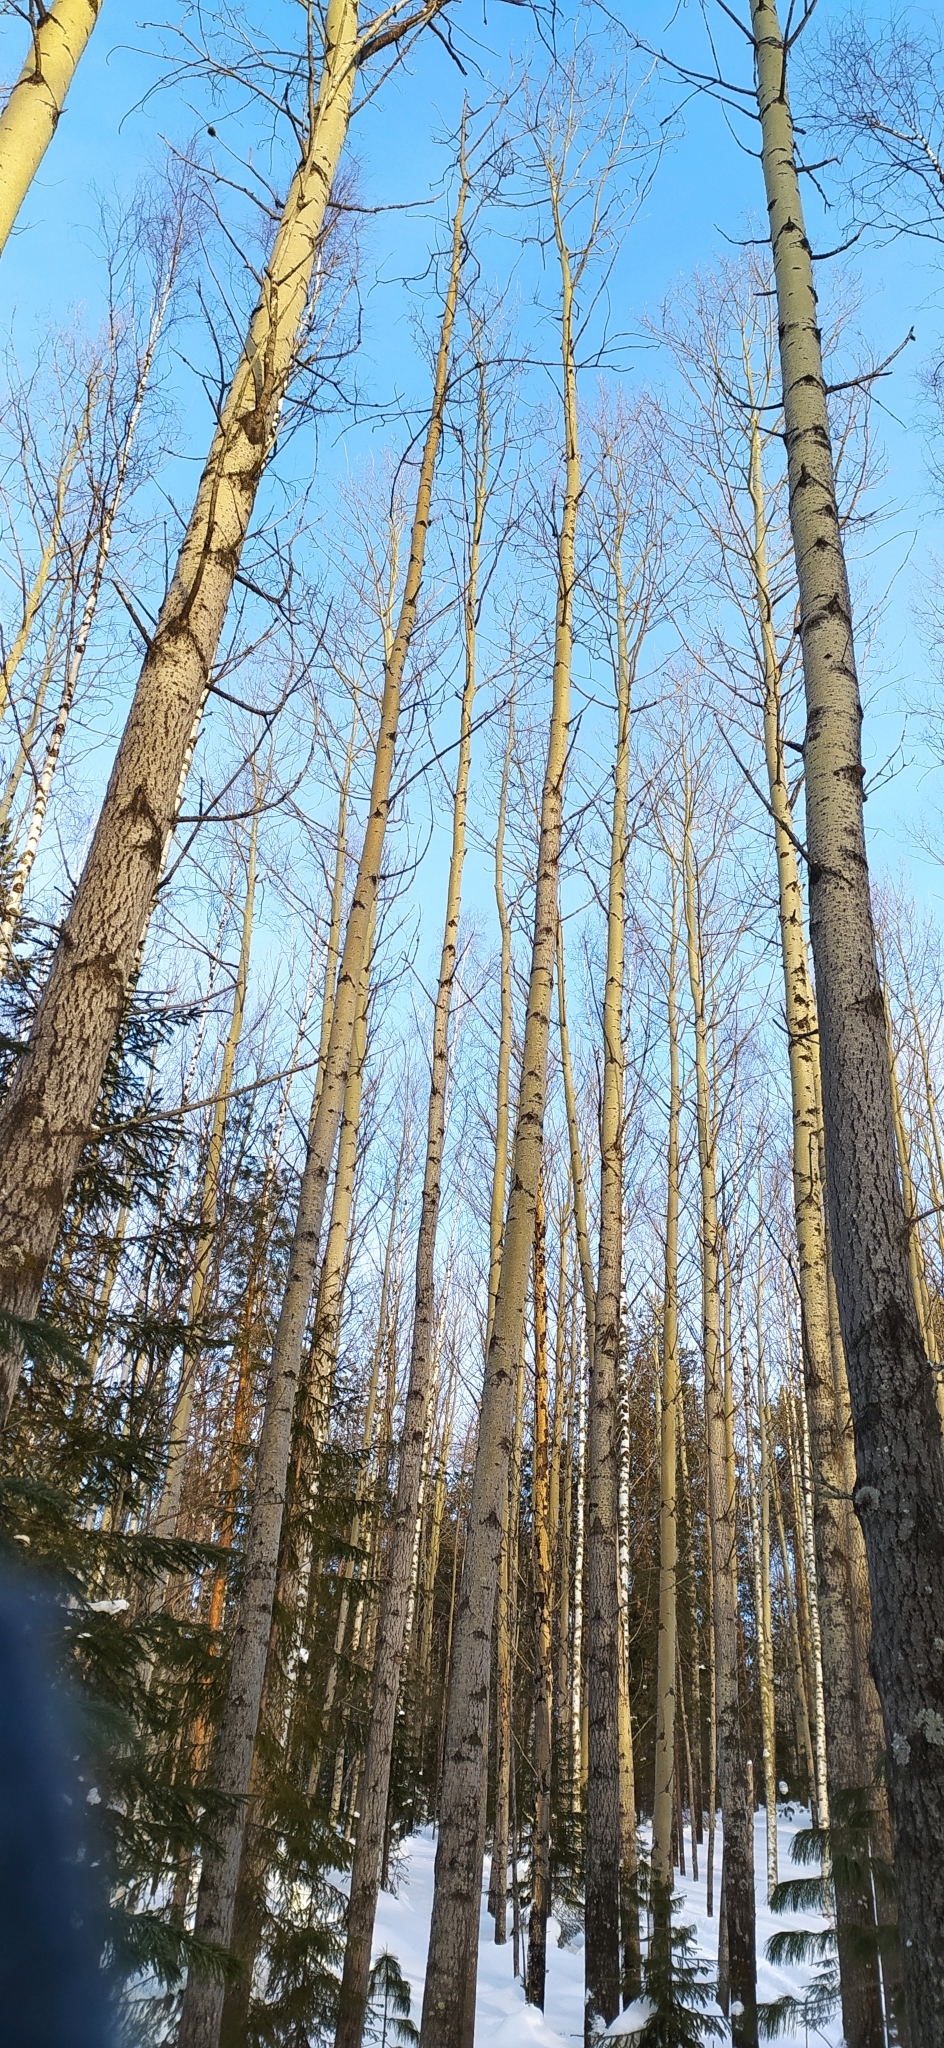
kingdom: Plantae
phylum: Tracheophyta
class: Magnoliopsida
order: Malpighiales
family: Salicaceae
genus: Populus
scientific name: Populus tremula
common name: European aspen
